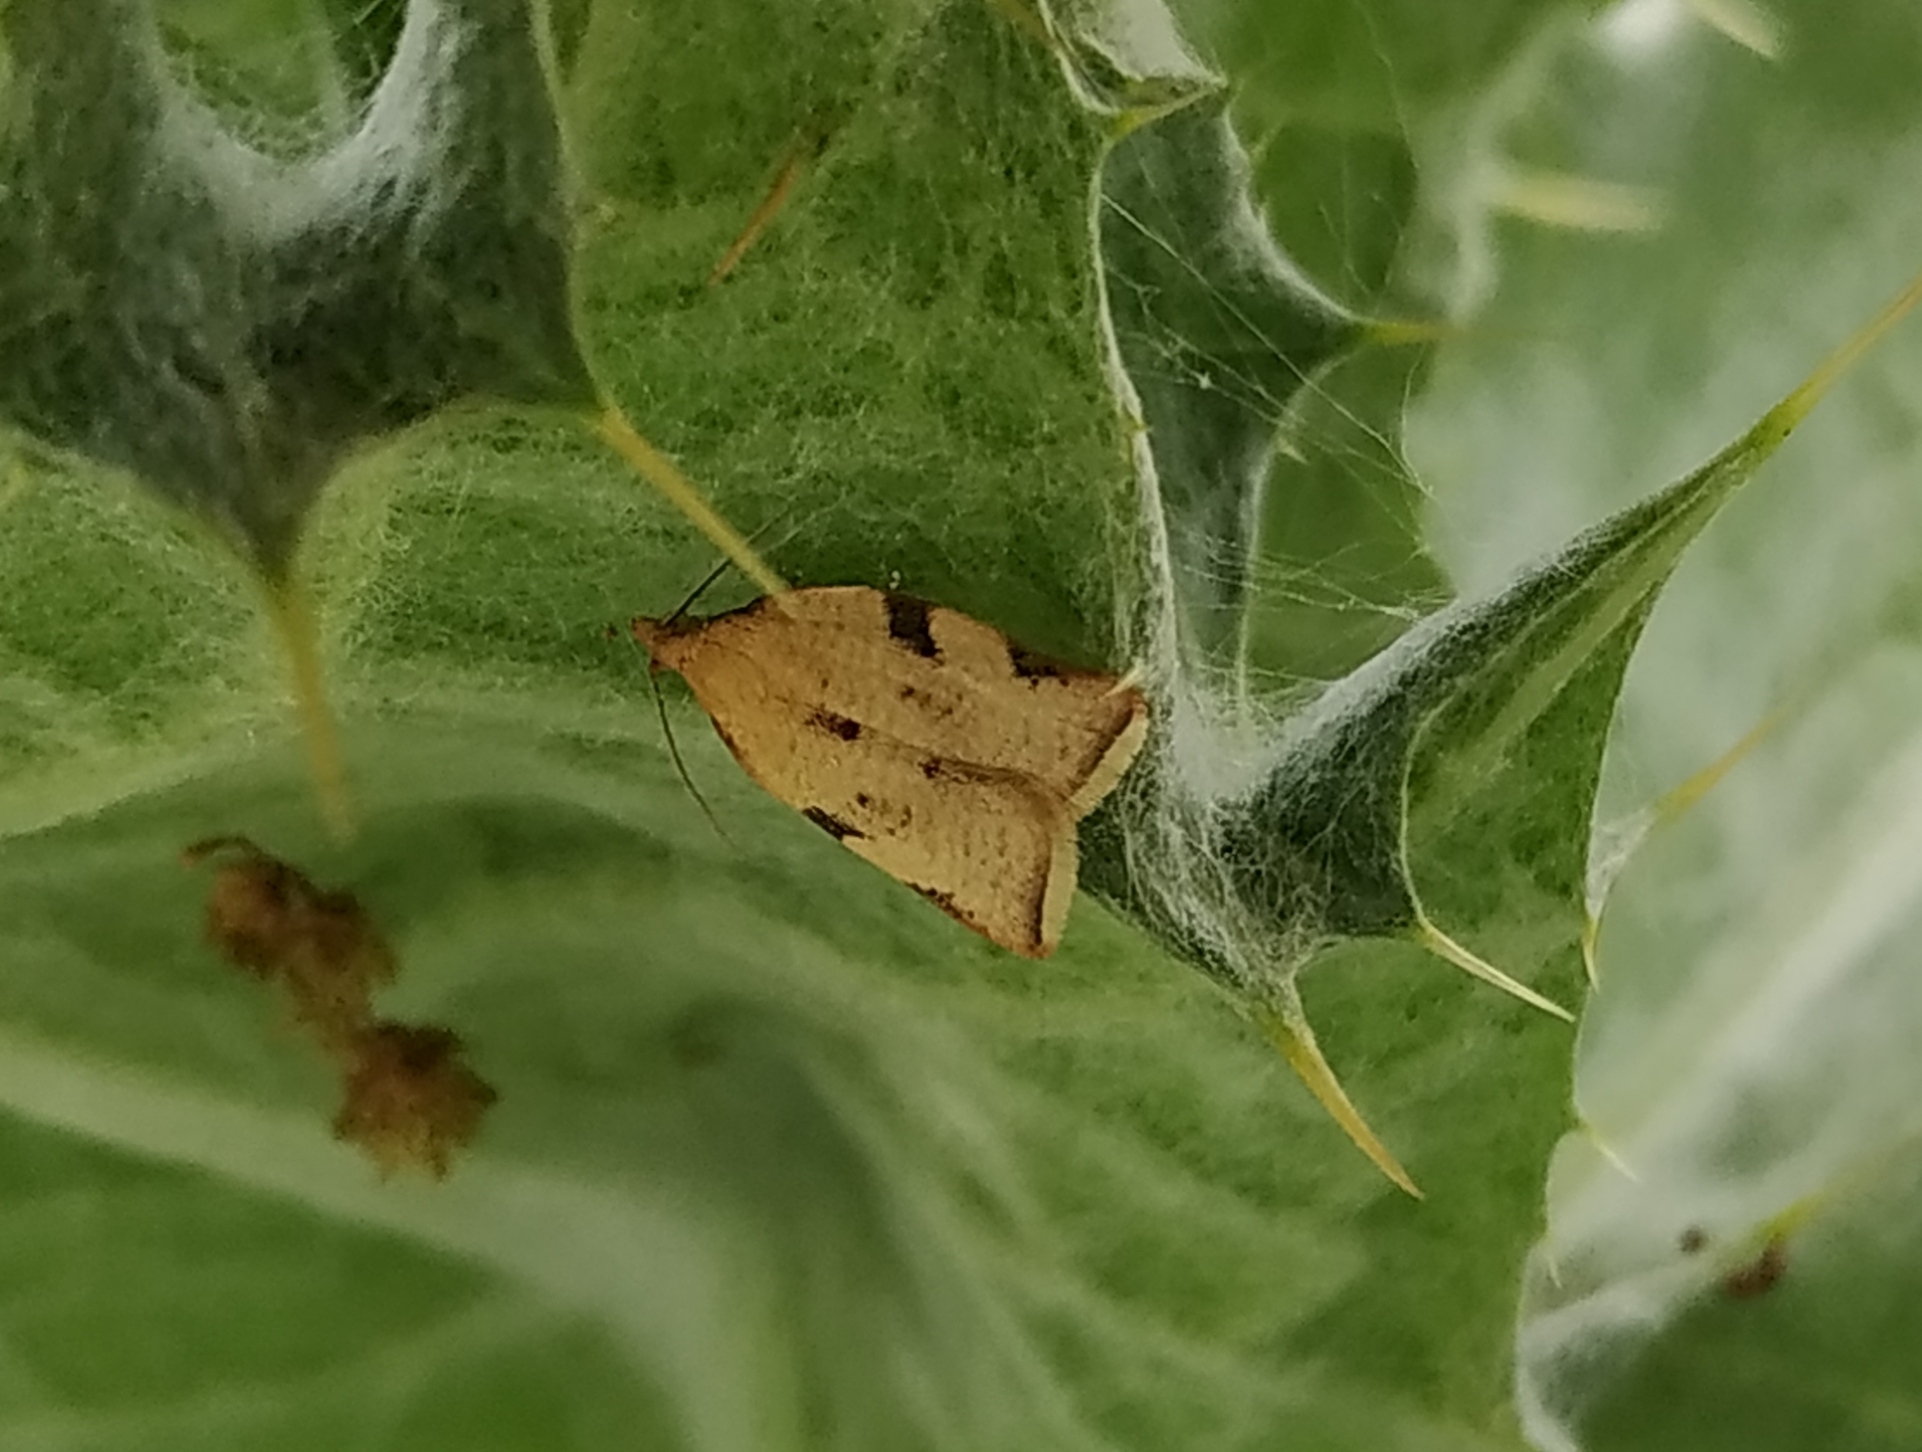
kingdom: Animalia
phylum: Arthropoda
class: Insecta
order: Lepidoptera
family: Tortricidae
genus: Clepsis
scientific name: Clepsis siciliana
